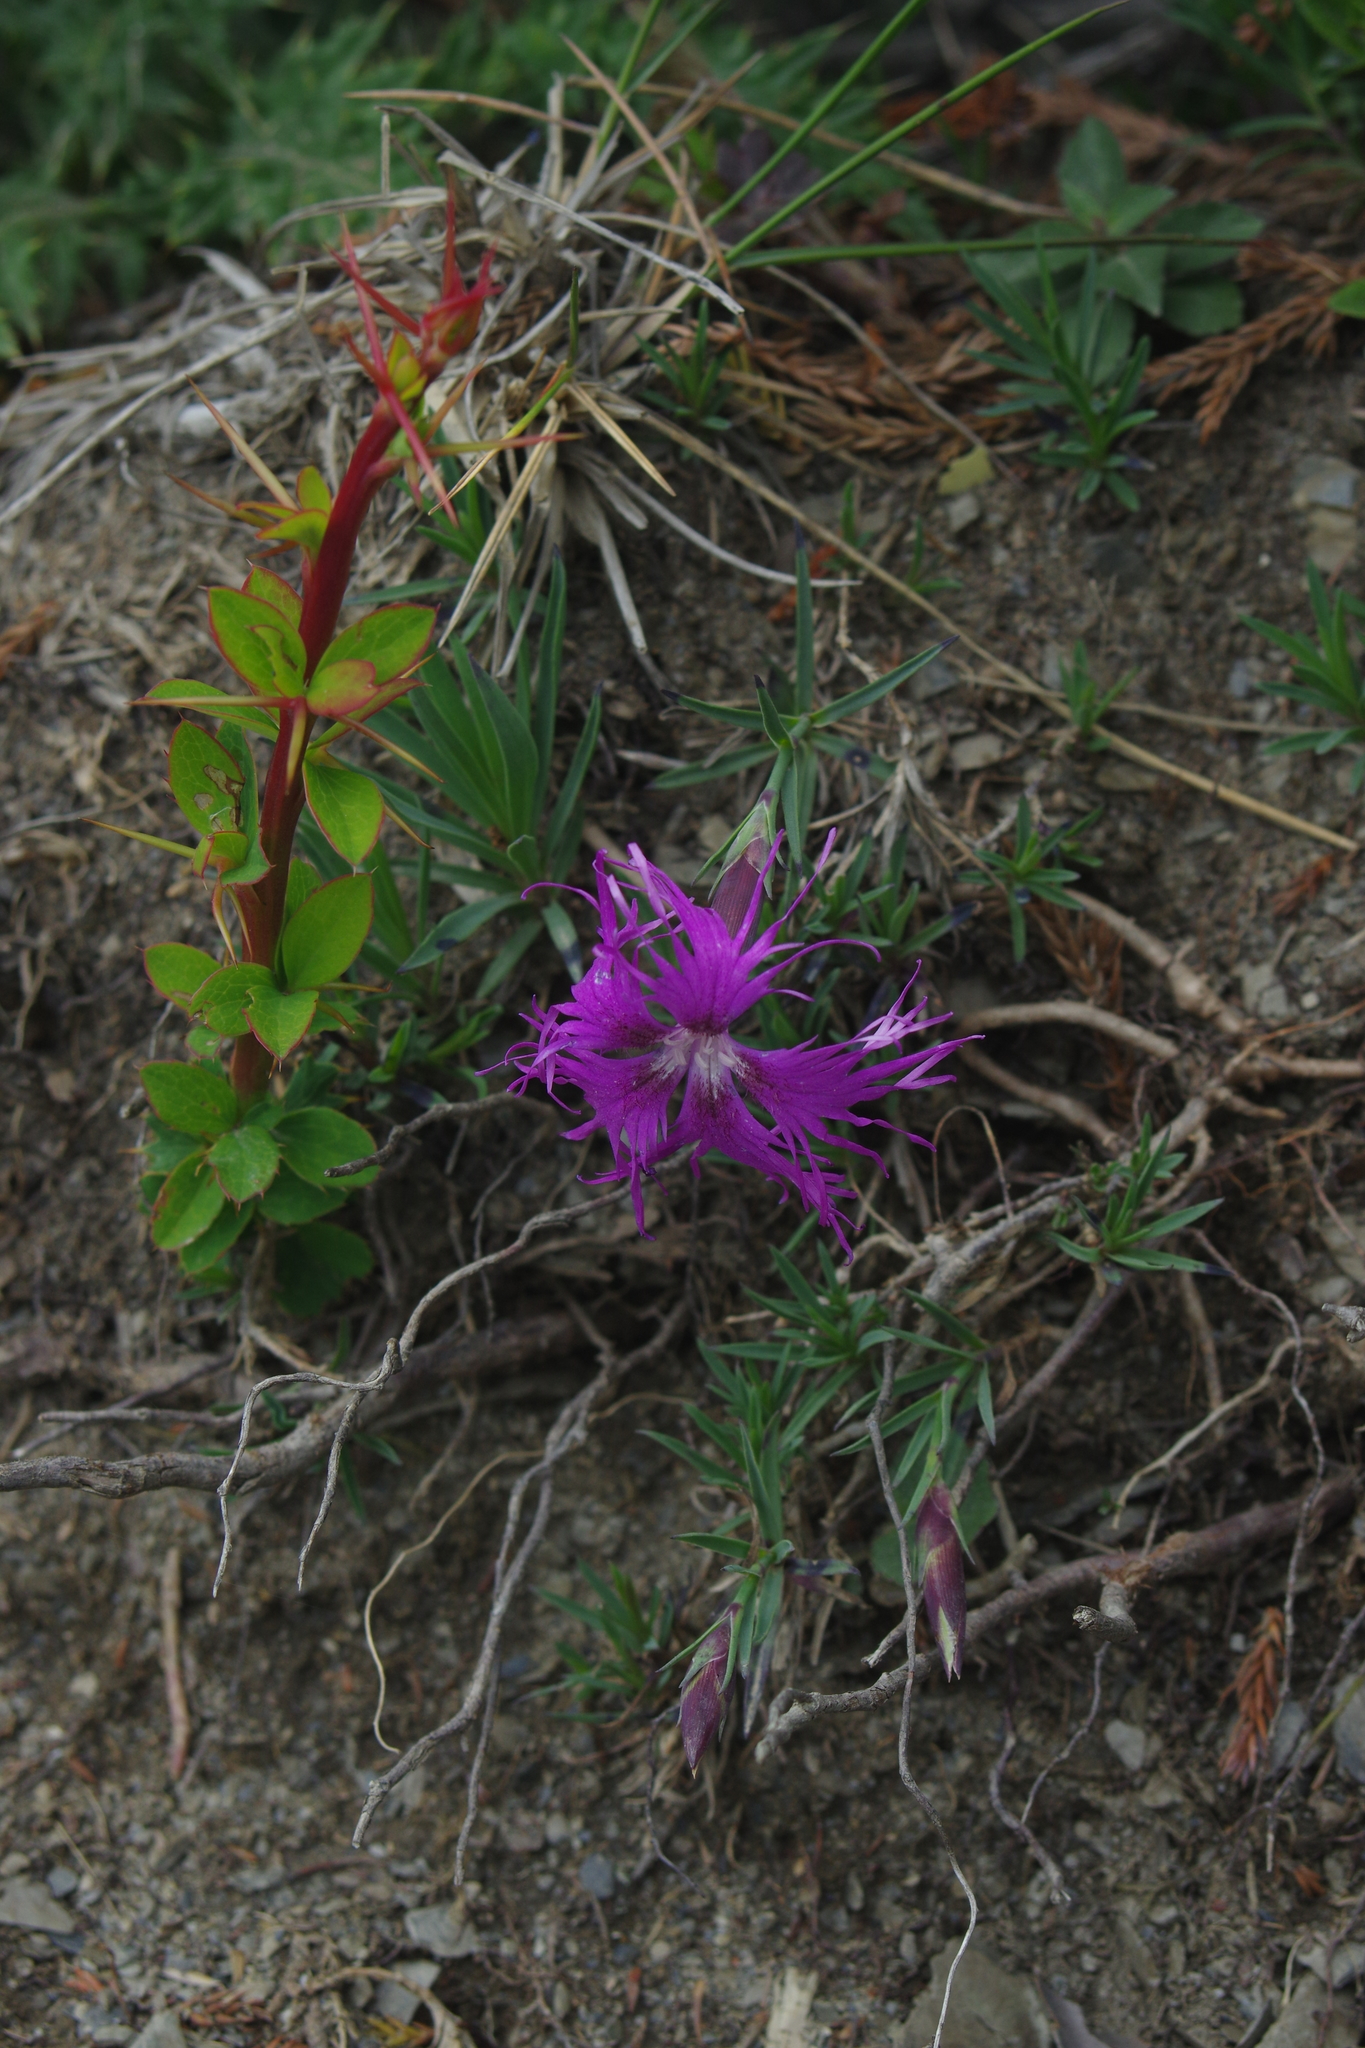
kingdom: Plantae
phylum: Tracheophyta
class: Magnoliopsida
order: Caryophyllales
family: Caryophyllaceae
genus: Dianthus
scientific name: Dianthus pygmaeus
